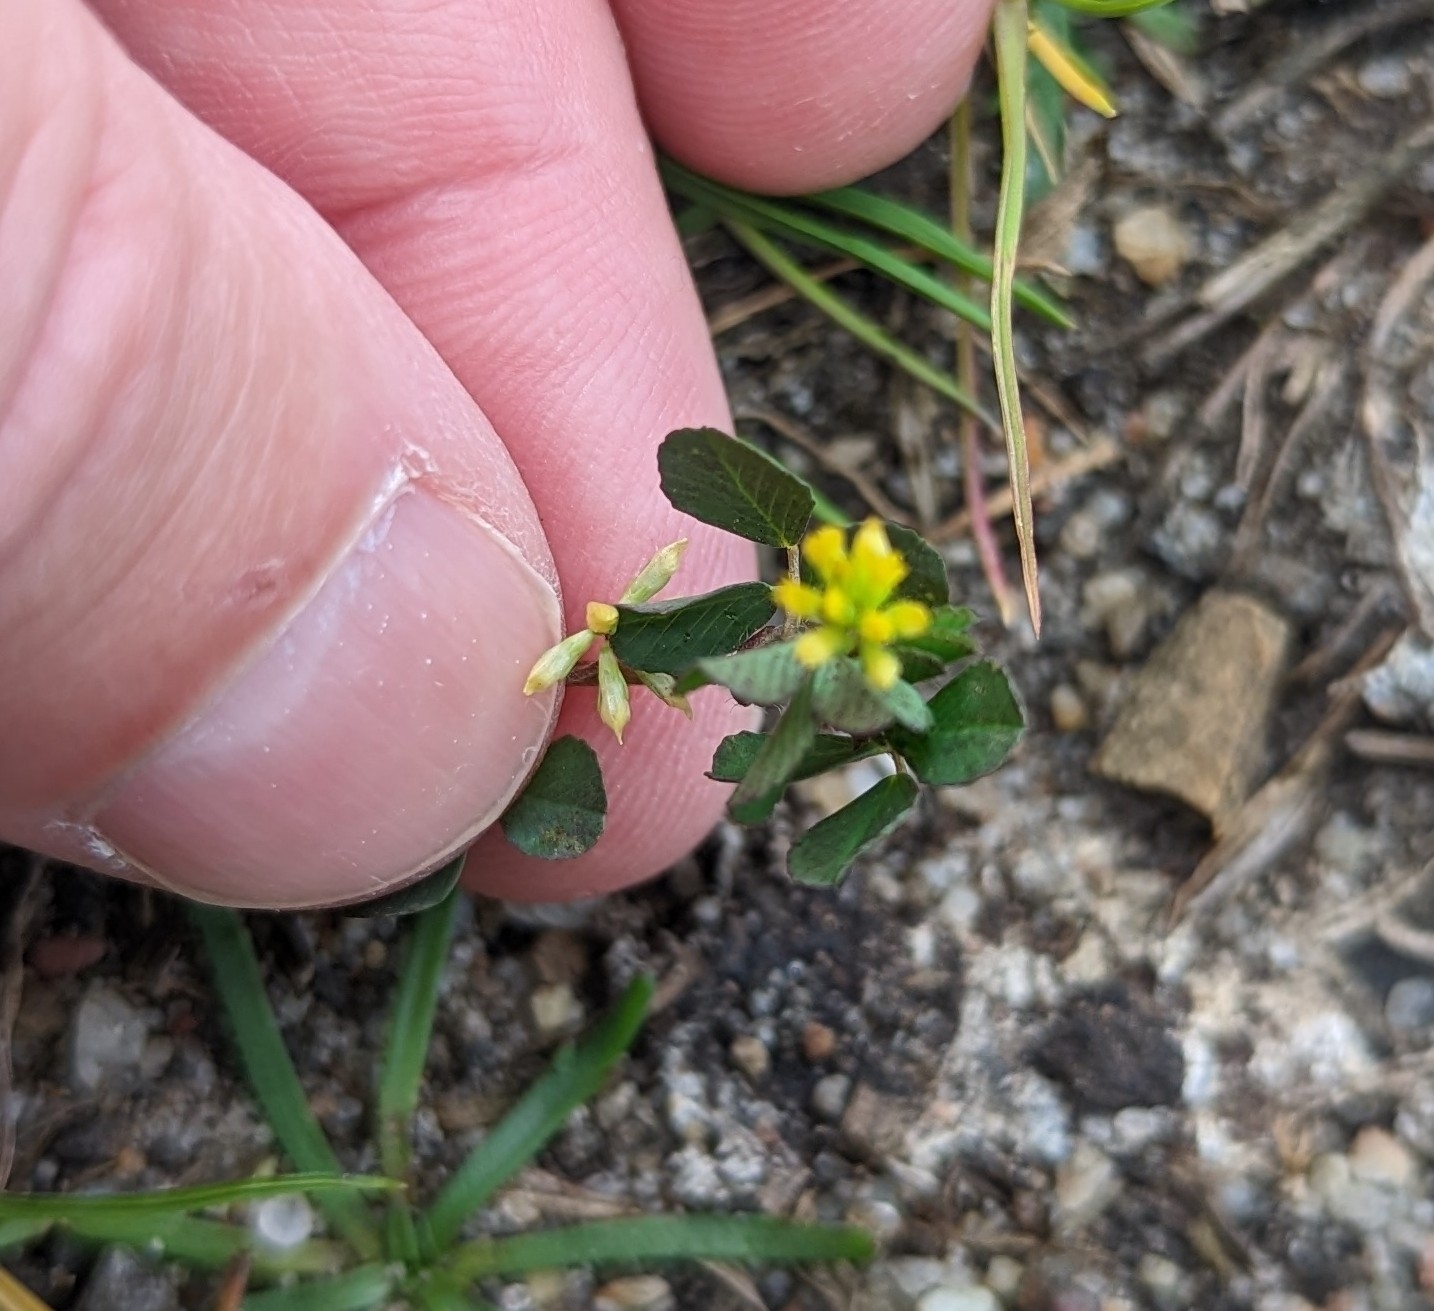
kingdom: Plantae
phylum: Tracheophyta
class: Magnoliopsida
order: Fabales
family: Fabaceae
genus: Trifolium
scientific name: Trifolium dubium
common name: Suckling clover
